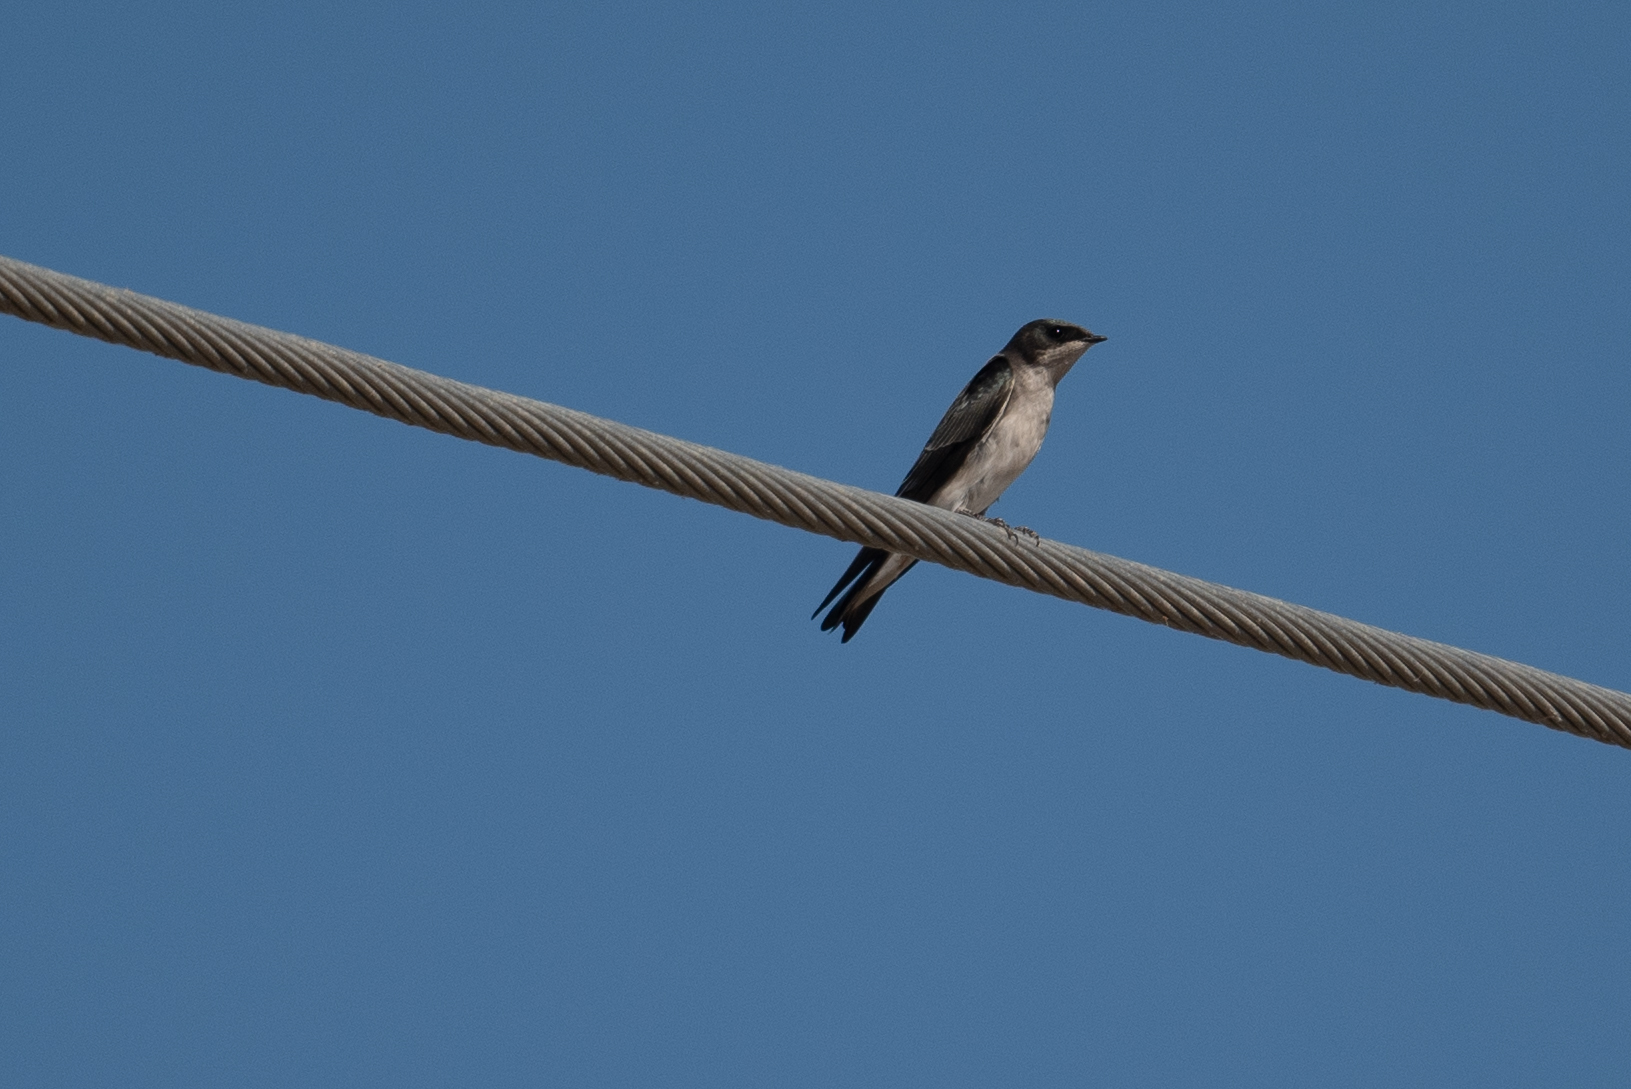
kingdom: Animalia
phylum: Chordata
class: Aves
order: Passeriformes
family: Hirundinidae
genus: Tachycineta
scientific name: Tachycineta bicolor
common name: Tree swallow
